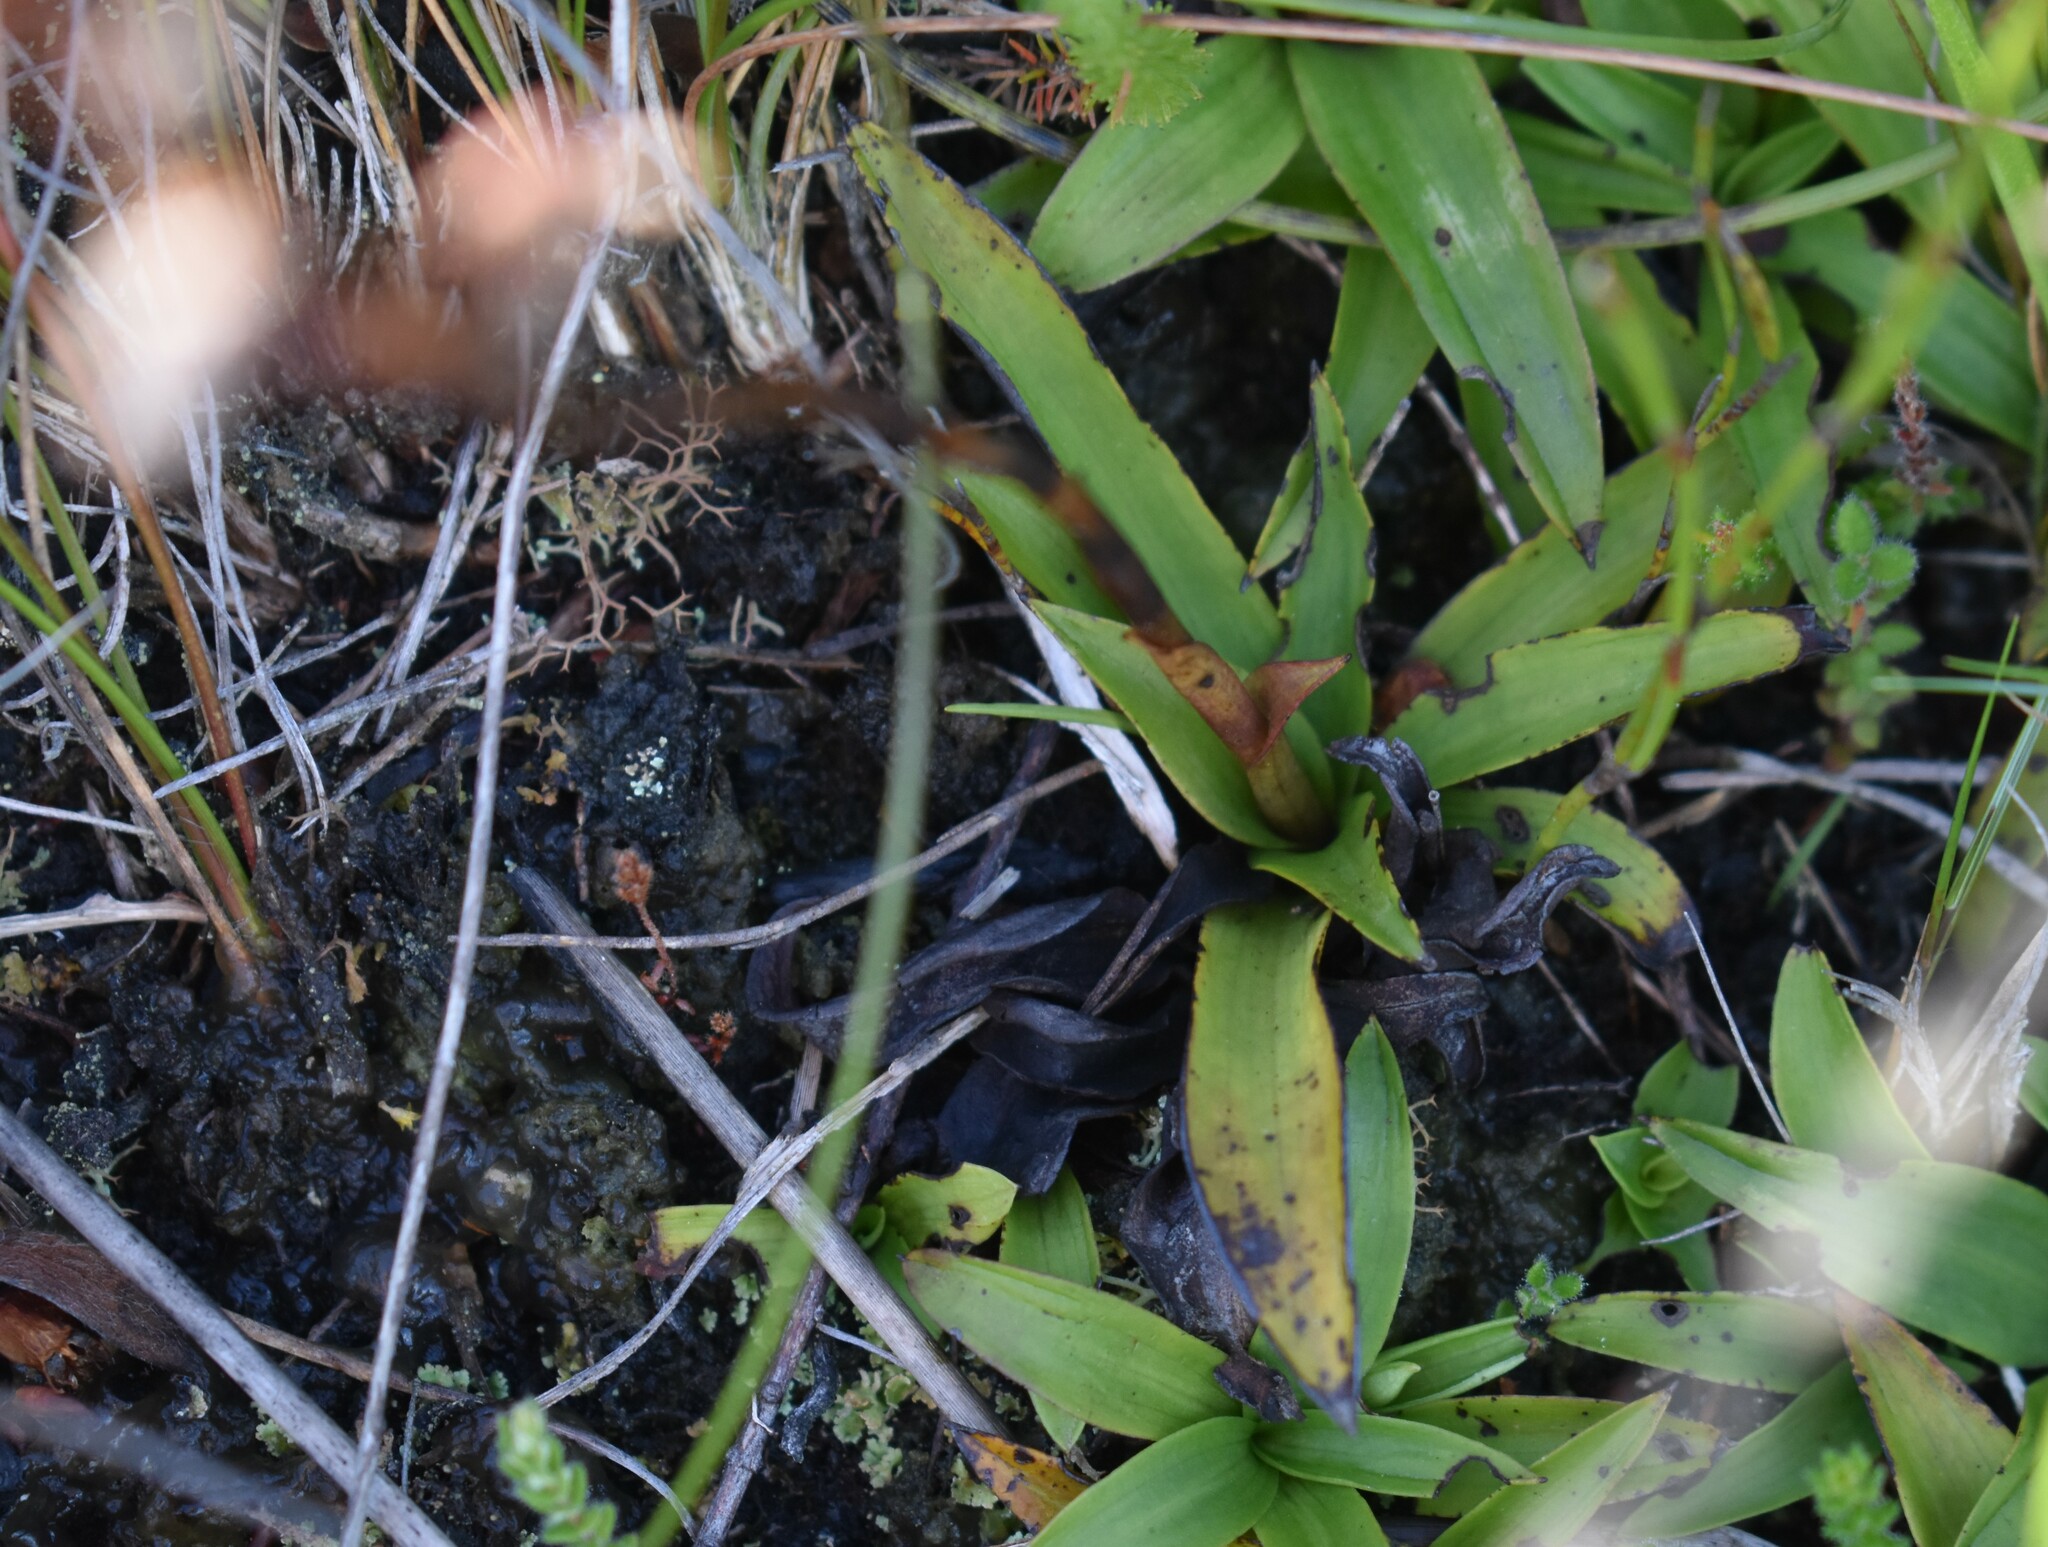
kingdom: Plantae
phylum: Tracheophyta
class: Liliopsida
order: Asparagales
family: Orchidaceae
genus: Disa
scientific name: Disa tripetaloides
